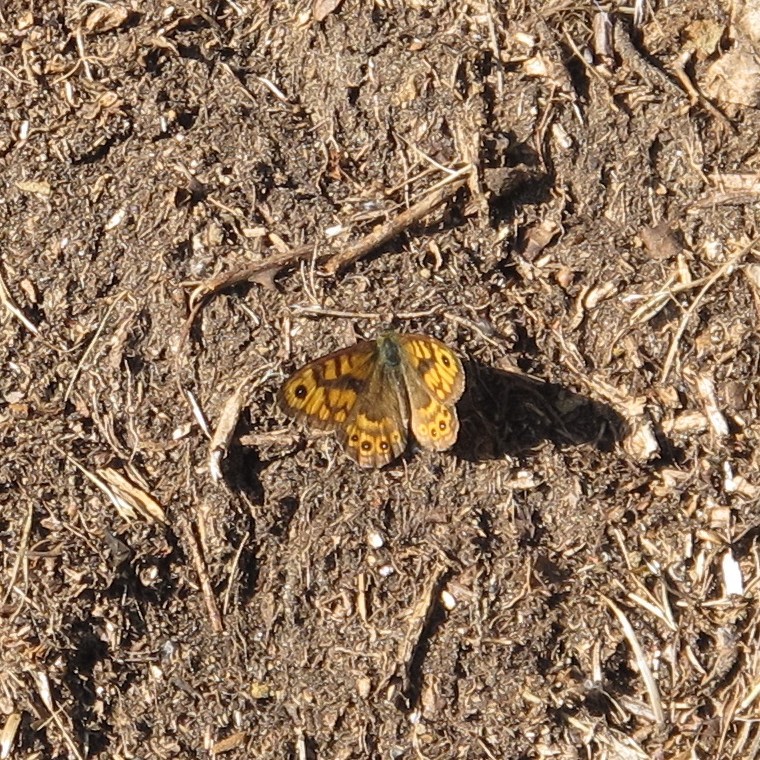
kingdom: Animalia
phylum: Arthropoda
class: Insecta
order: Lepidoptera
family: Nymphalidae
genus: Pararge
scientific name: Pararge Lasiommata megera
